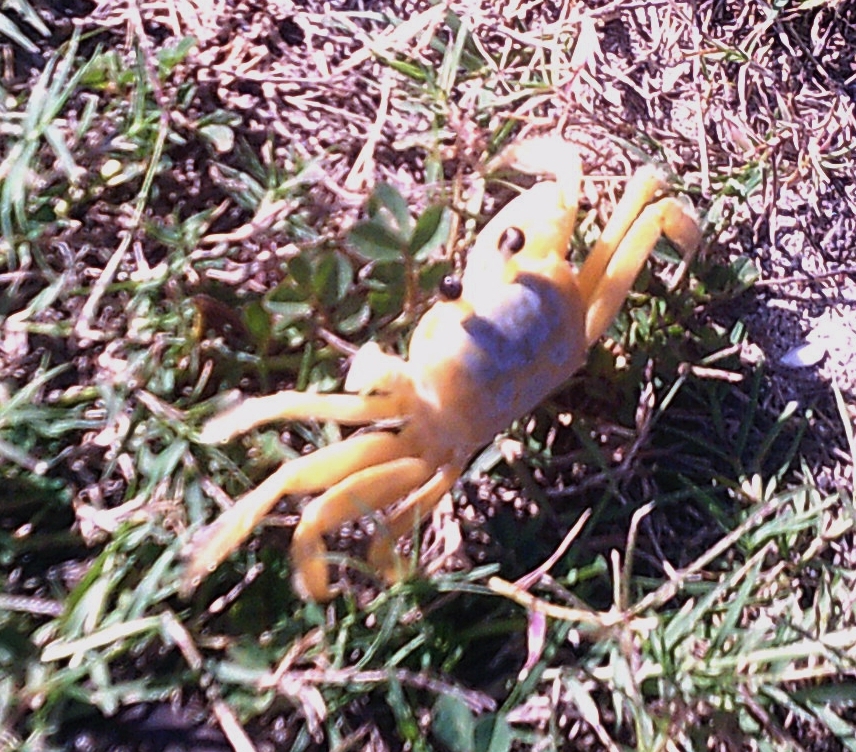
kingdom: Animalia
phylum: Arthropoda
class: Malacostraca
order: Decapoda
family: Ocypodidae
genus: Ocypode
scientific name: Ocypode quadrata
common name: Ghost crab
